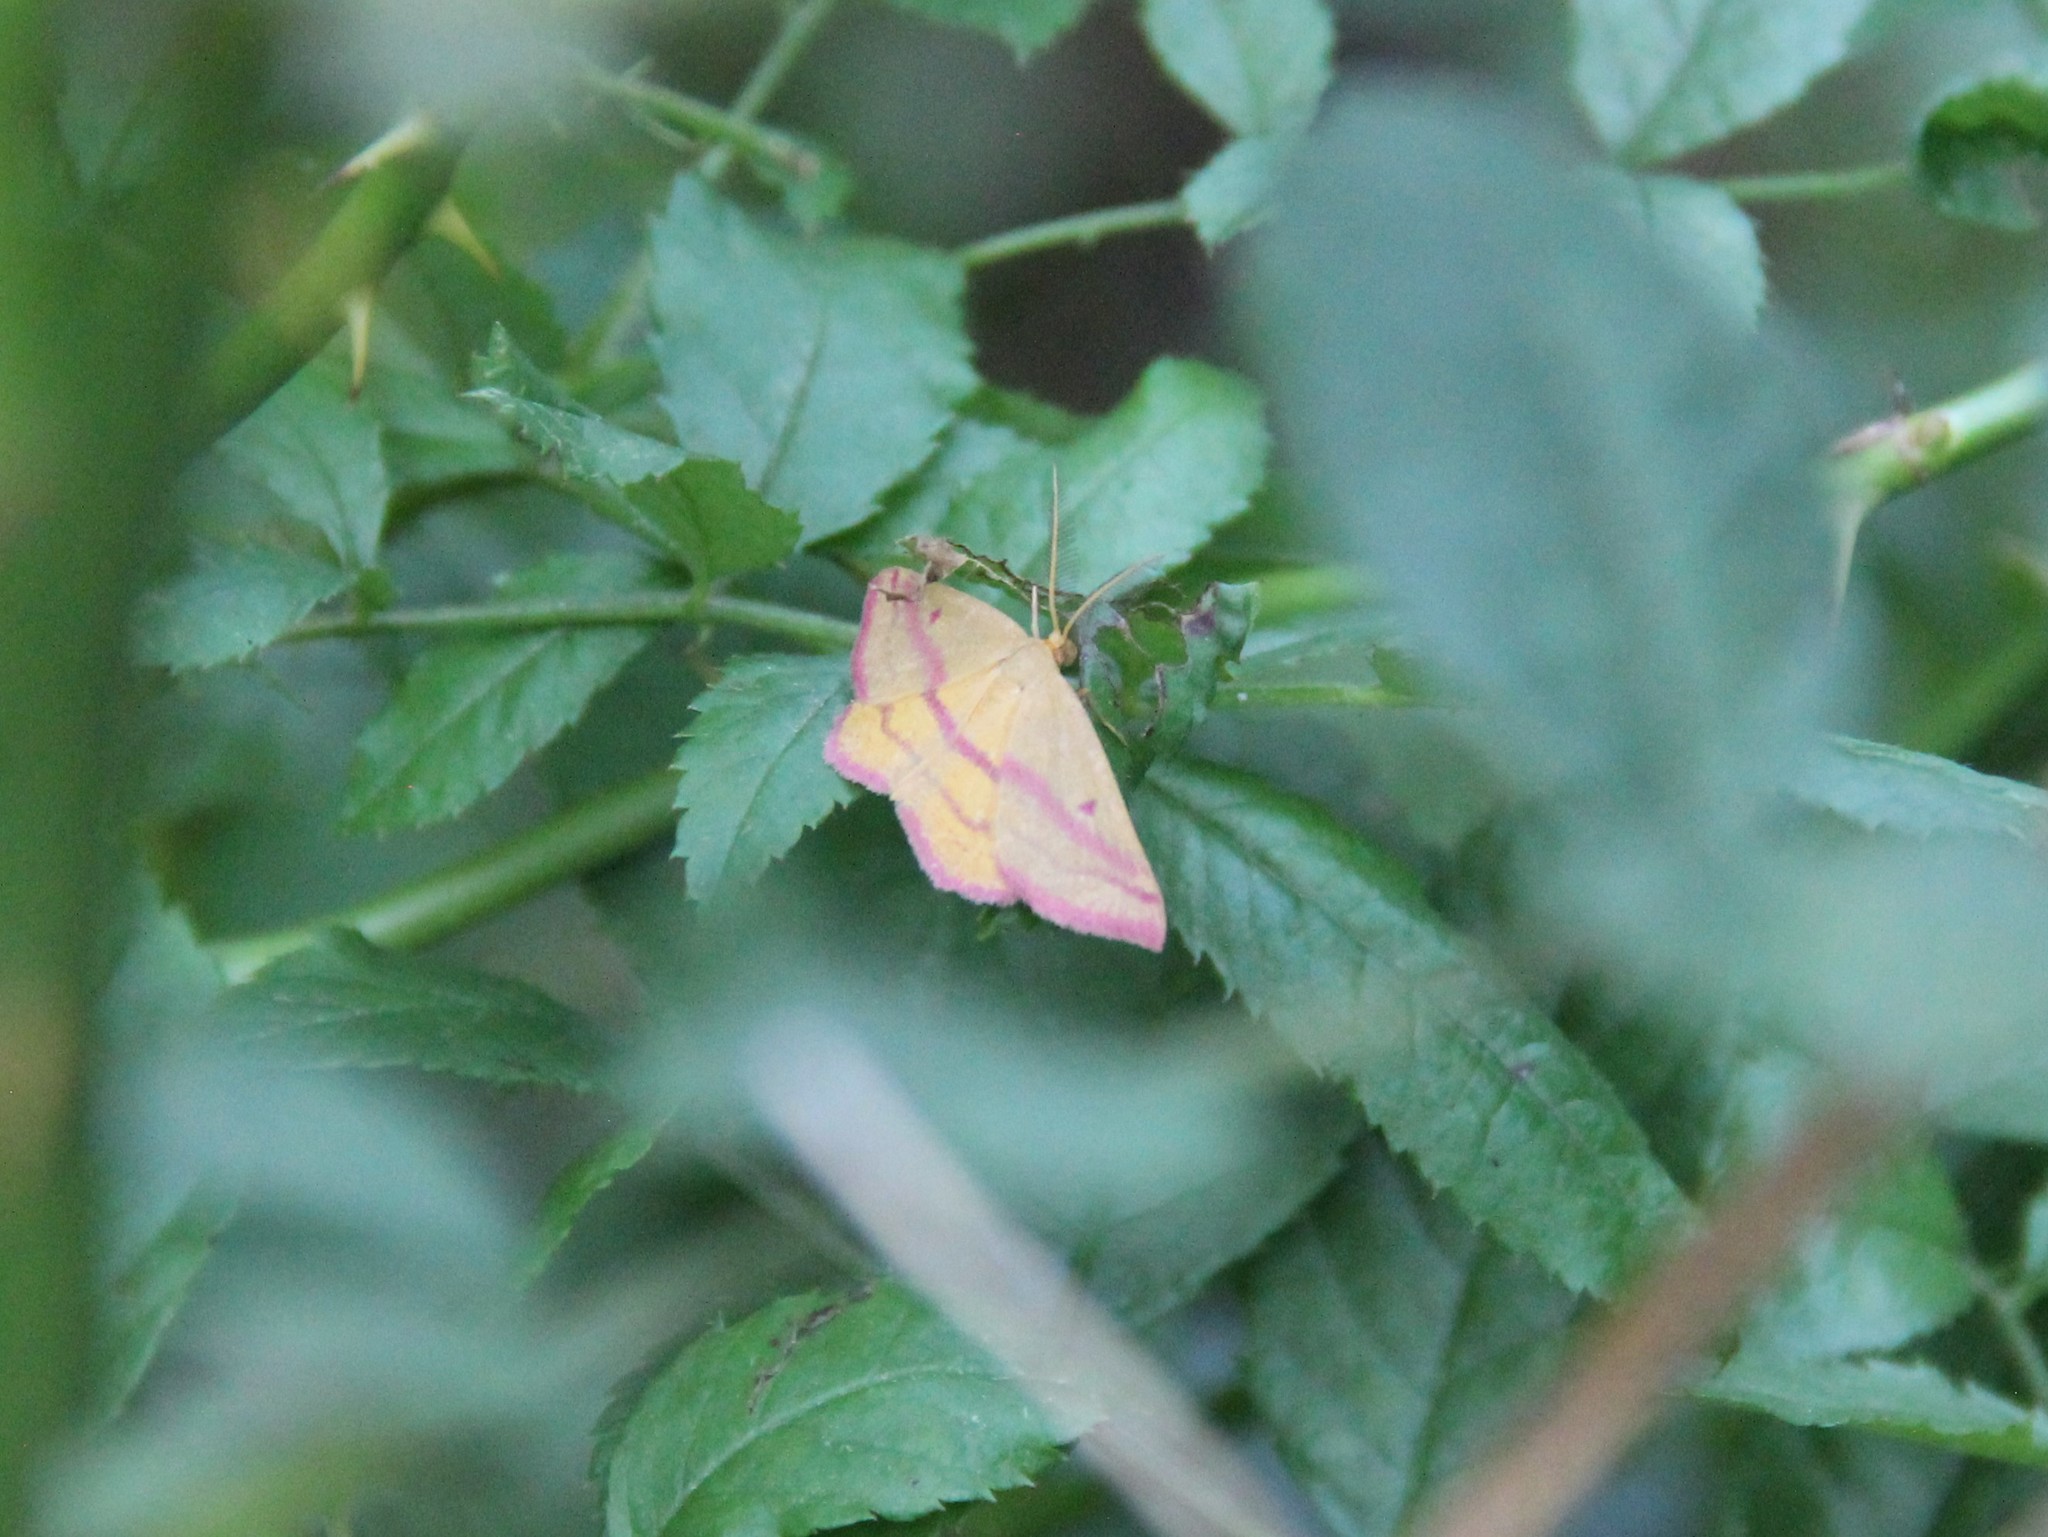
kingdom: Animalia
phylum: Arthropoda
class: Insecta
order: Lepidoptera
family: Geometridae
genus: Haematopis
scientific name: Haematopis grataria
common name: Chickweed geometer
